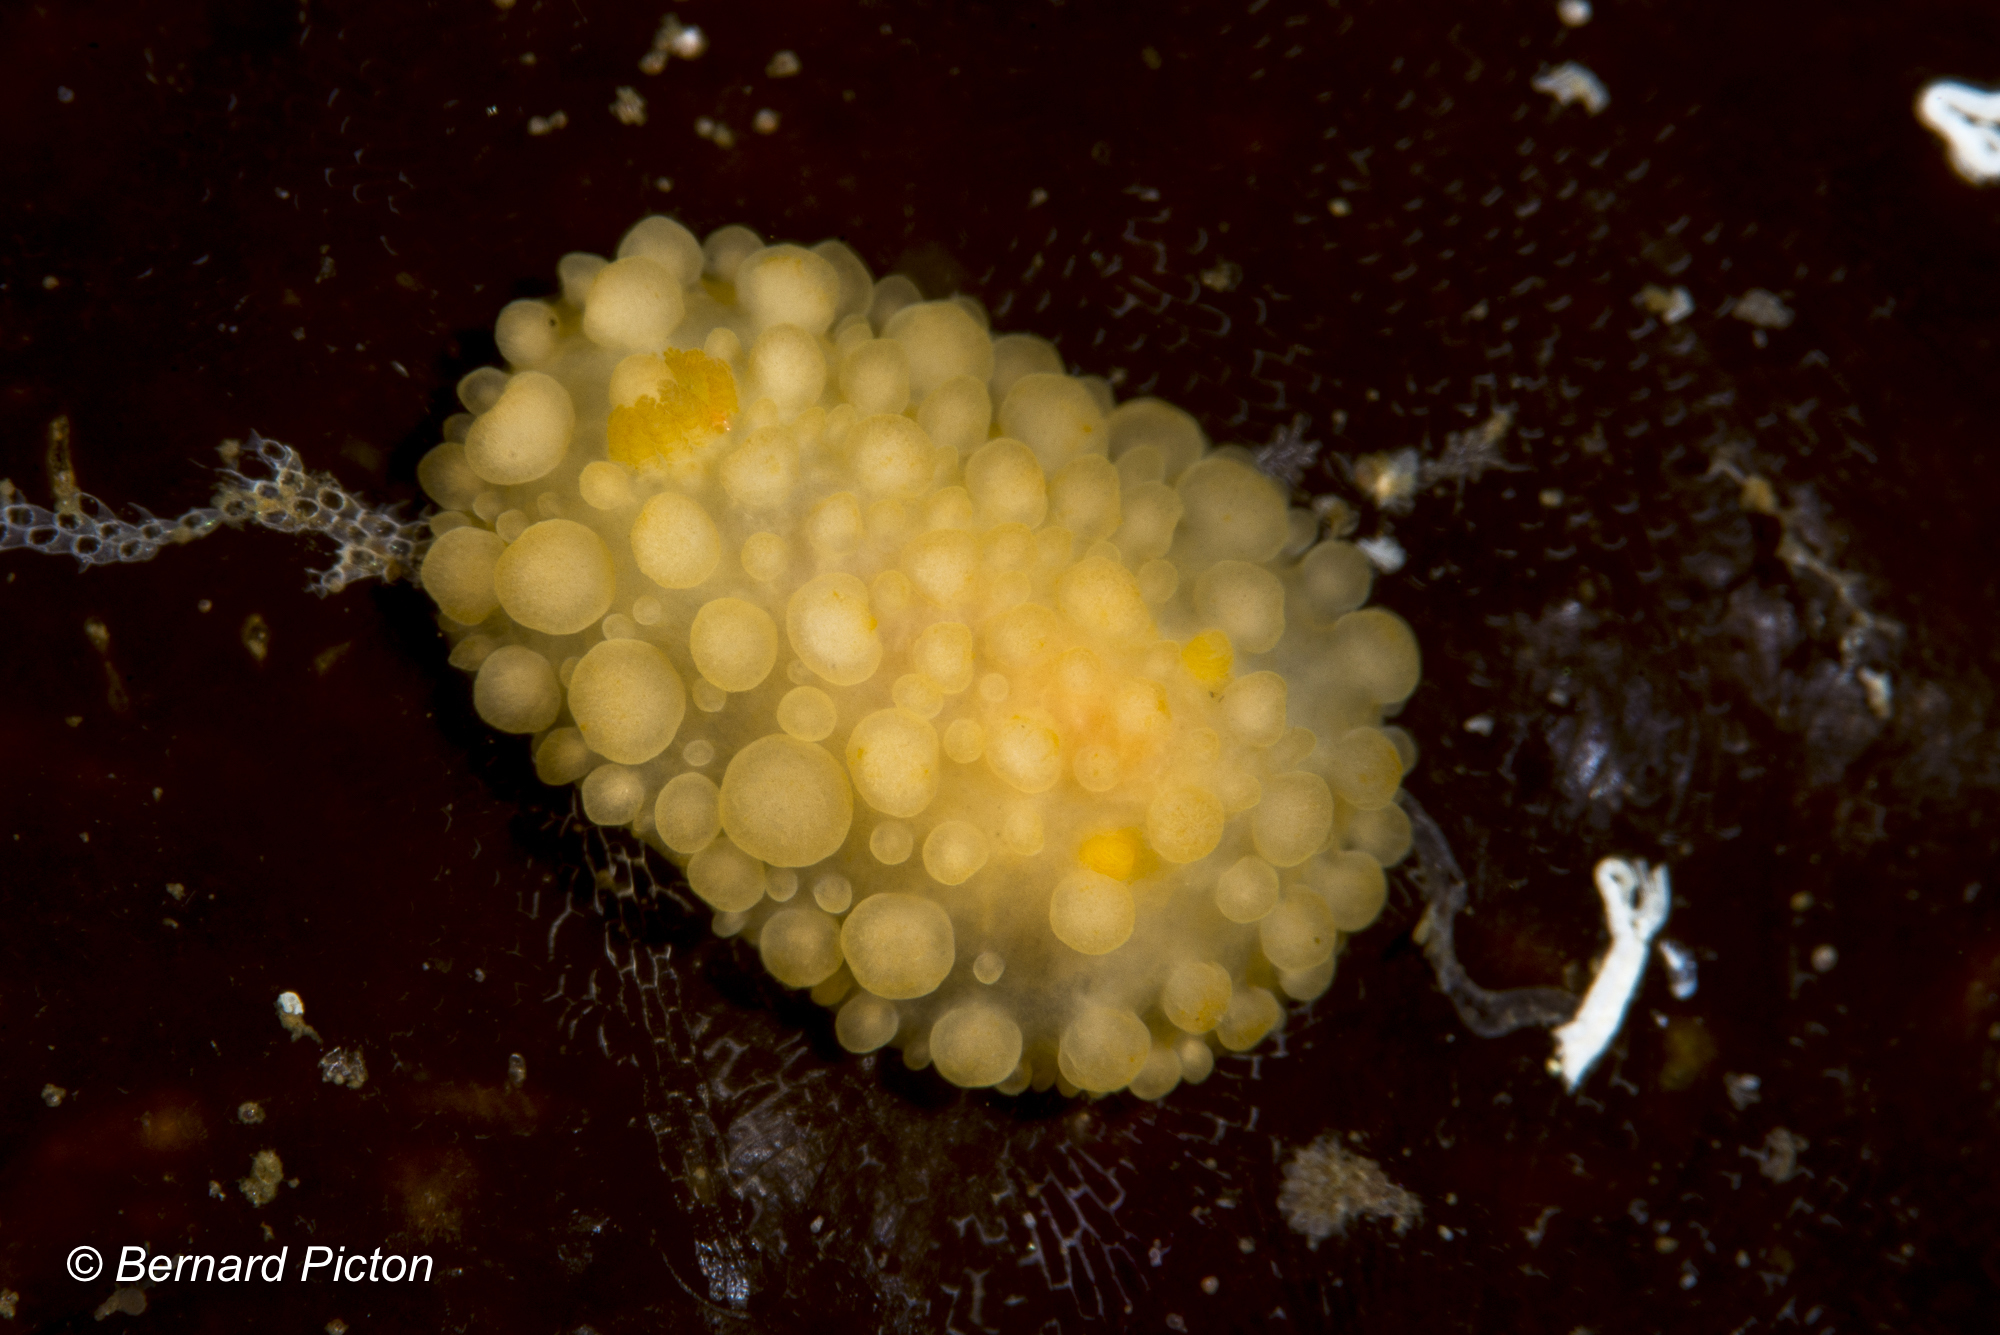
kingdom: Animalia
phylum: Mollusca
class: Gastropoda
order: Nudibranchia
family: Onchidorididae
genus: Adalaria
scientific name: Adalaria loveni
